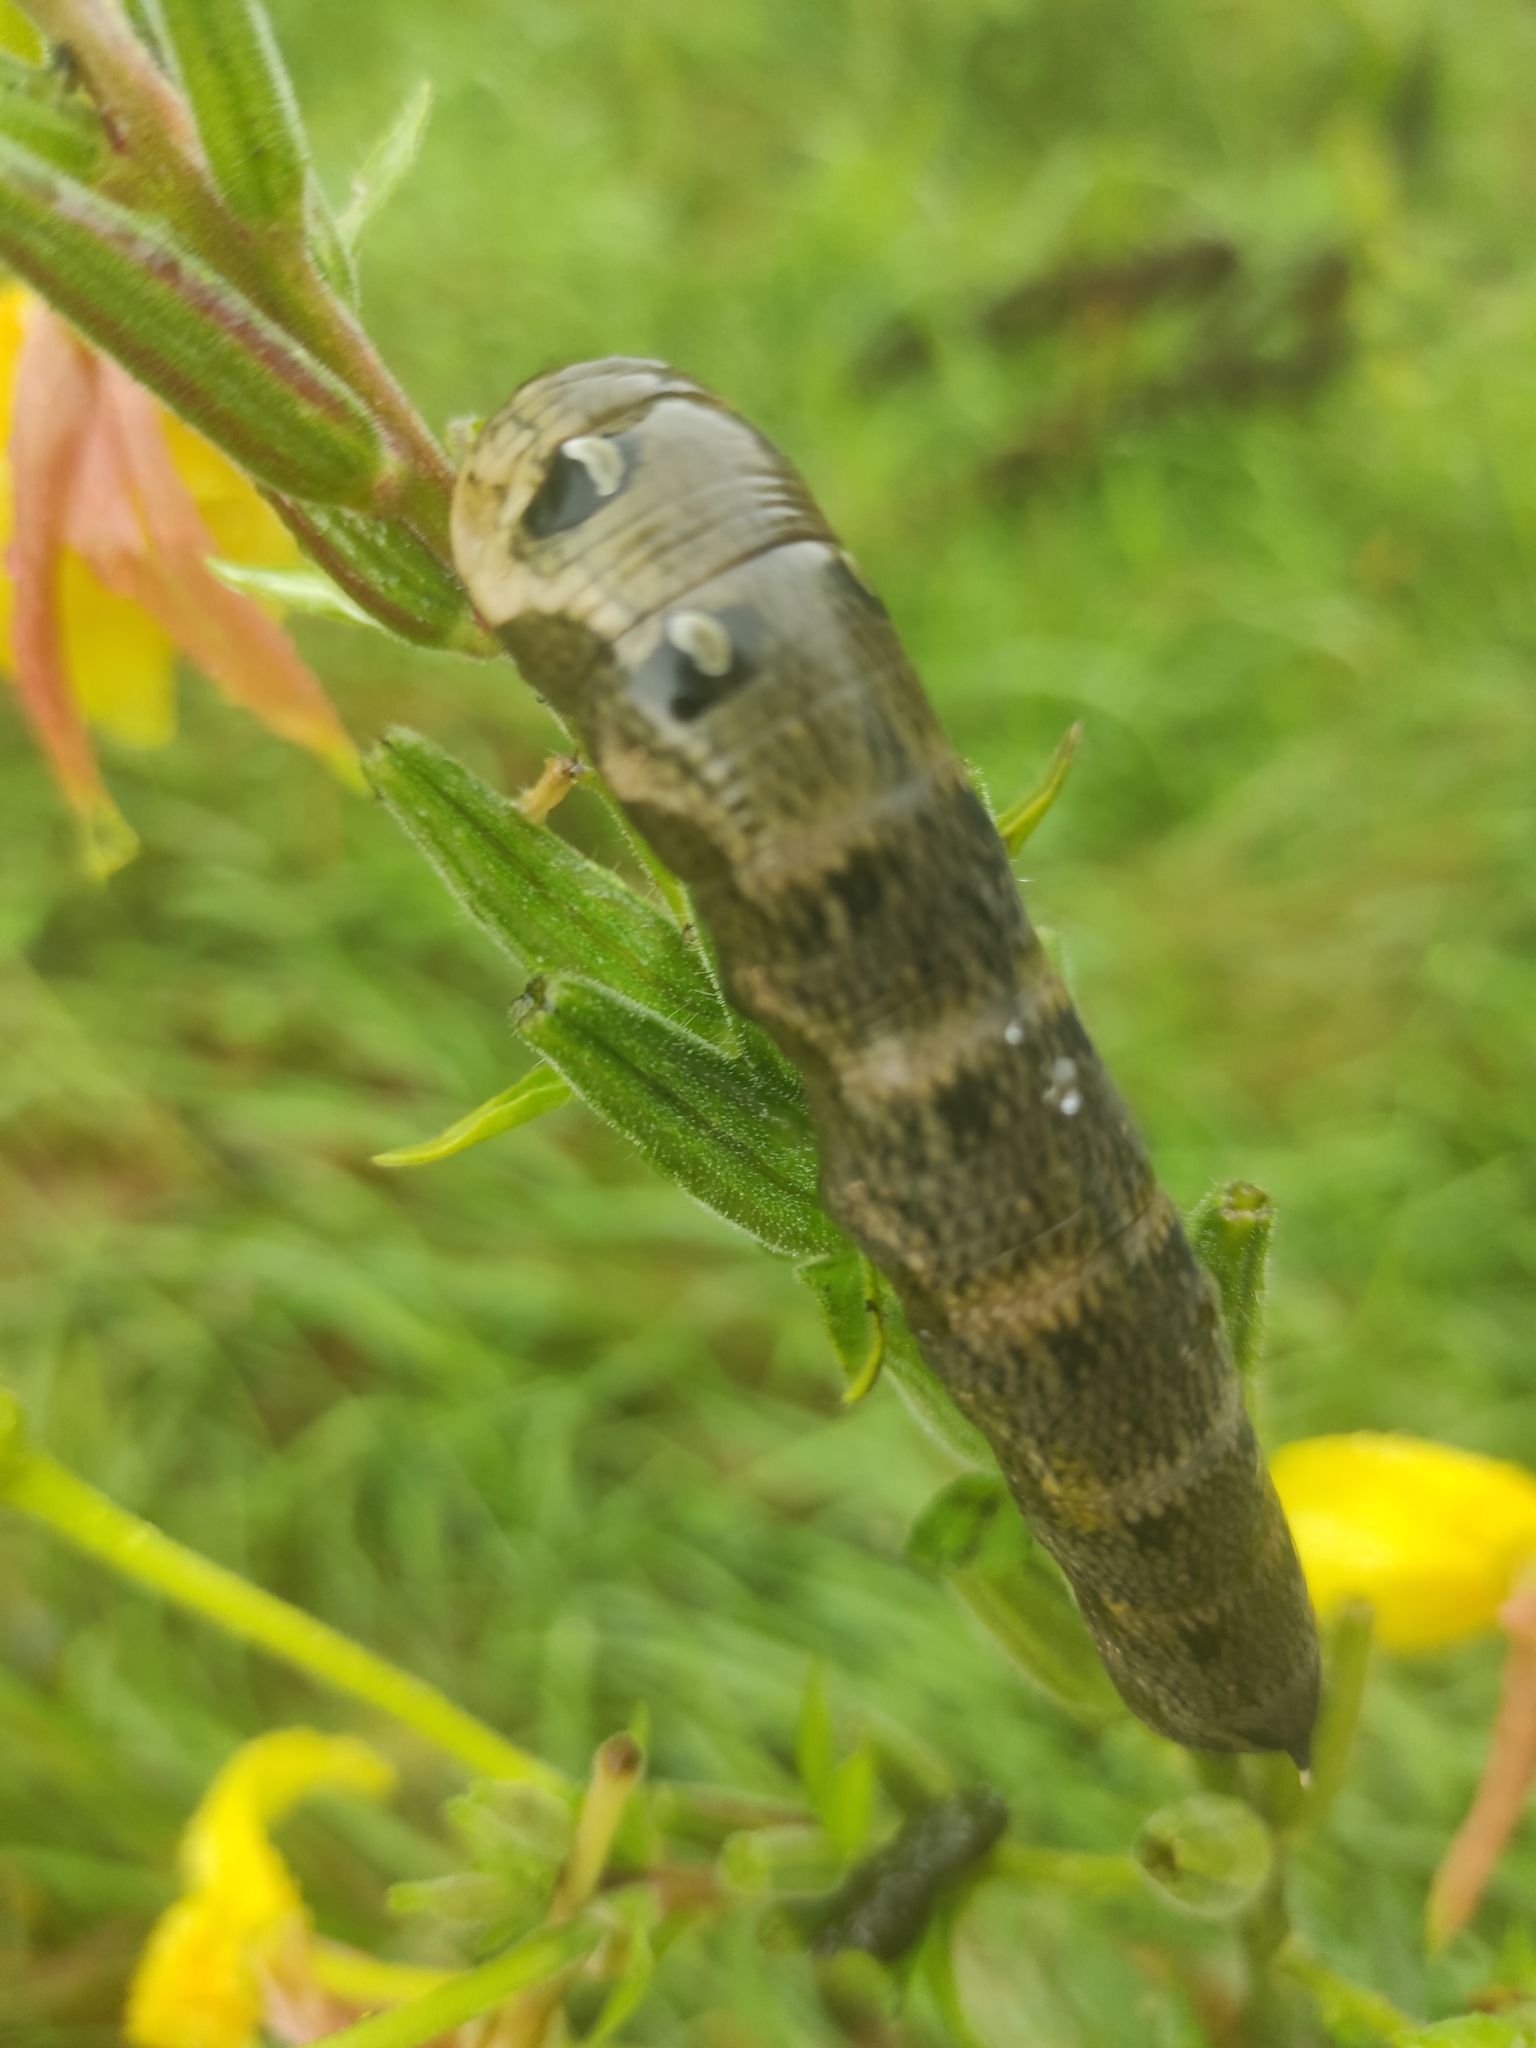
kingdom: Animalia
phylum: Arthropoda
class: Insecta
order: Lepidoptera
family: Sphingidae
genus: Deilephila
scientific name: Deilephila elpenor
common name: Elephant hawk-moth
